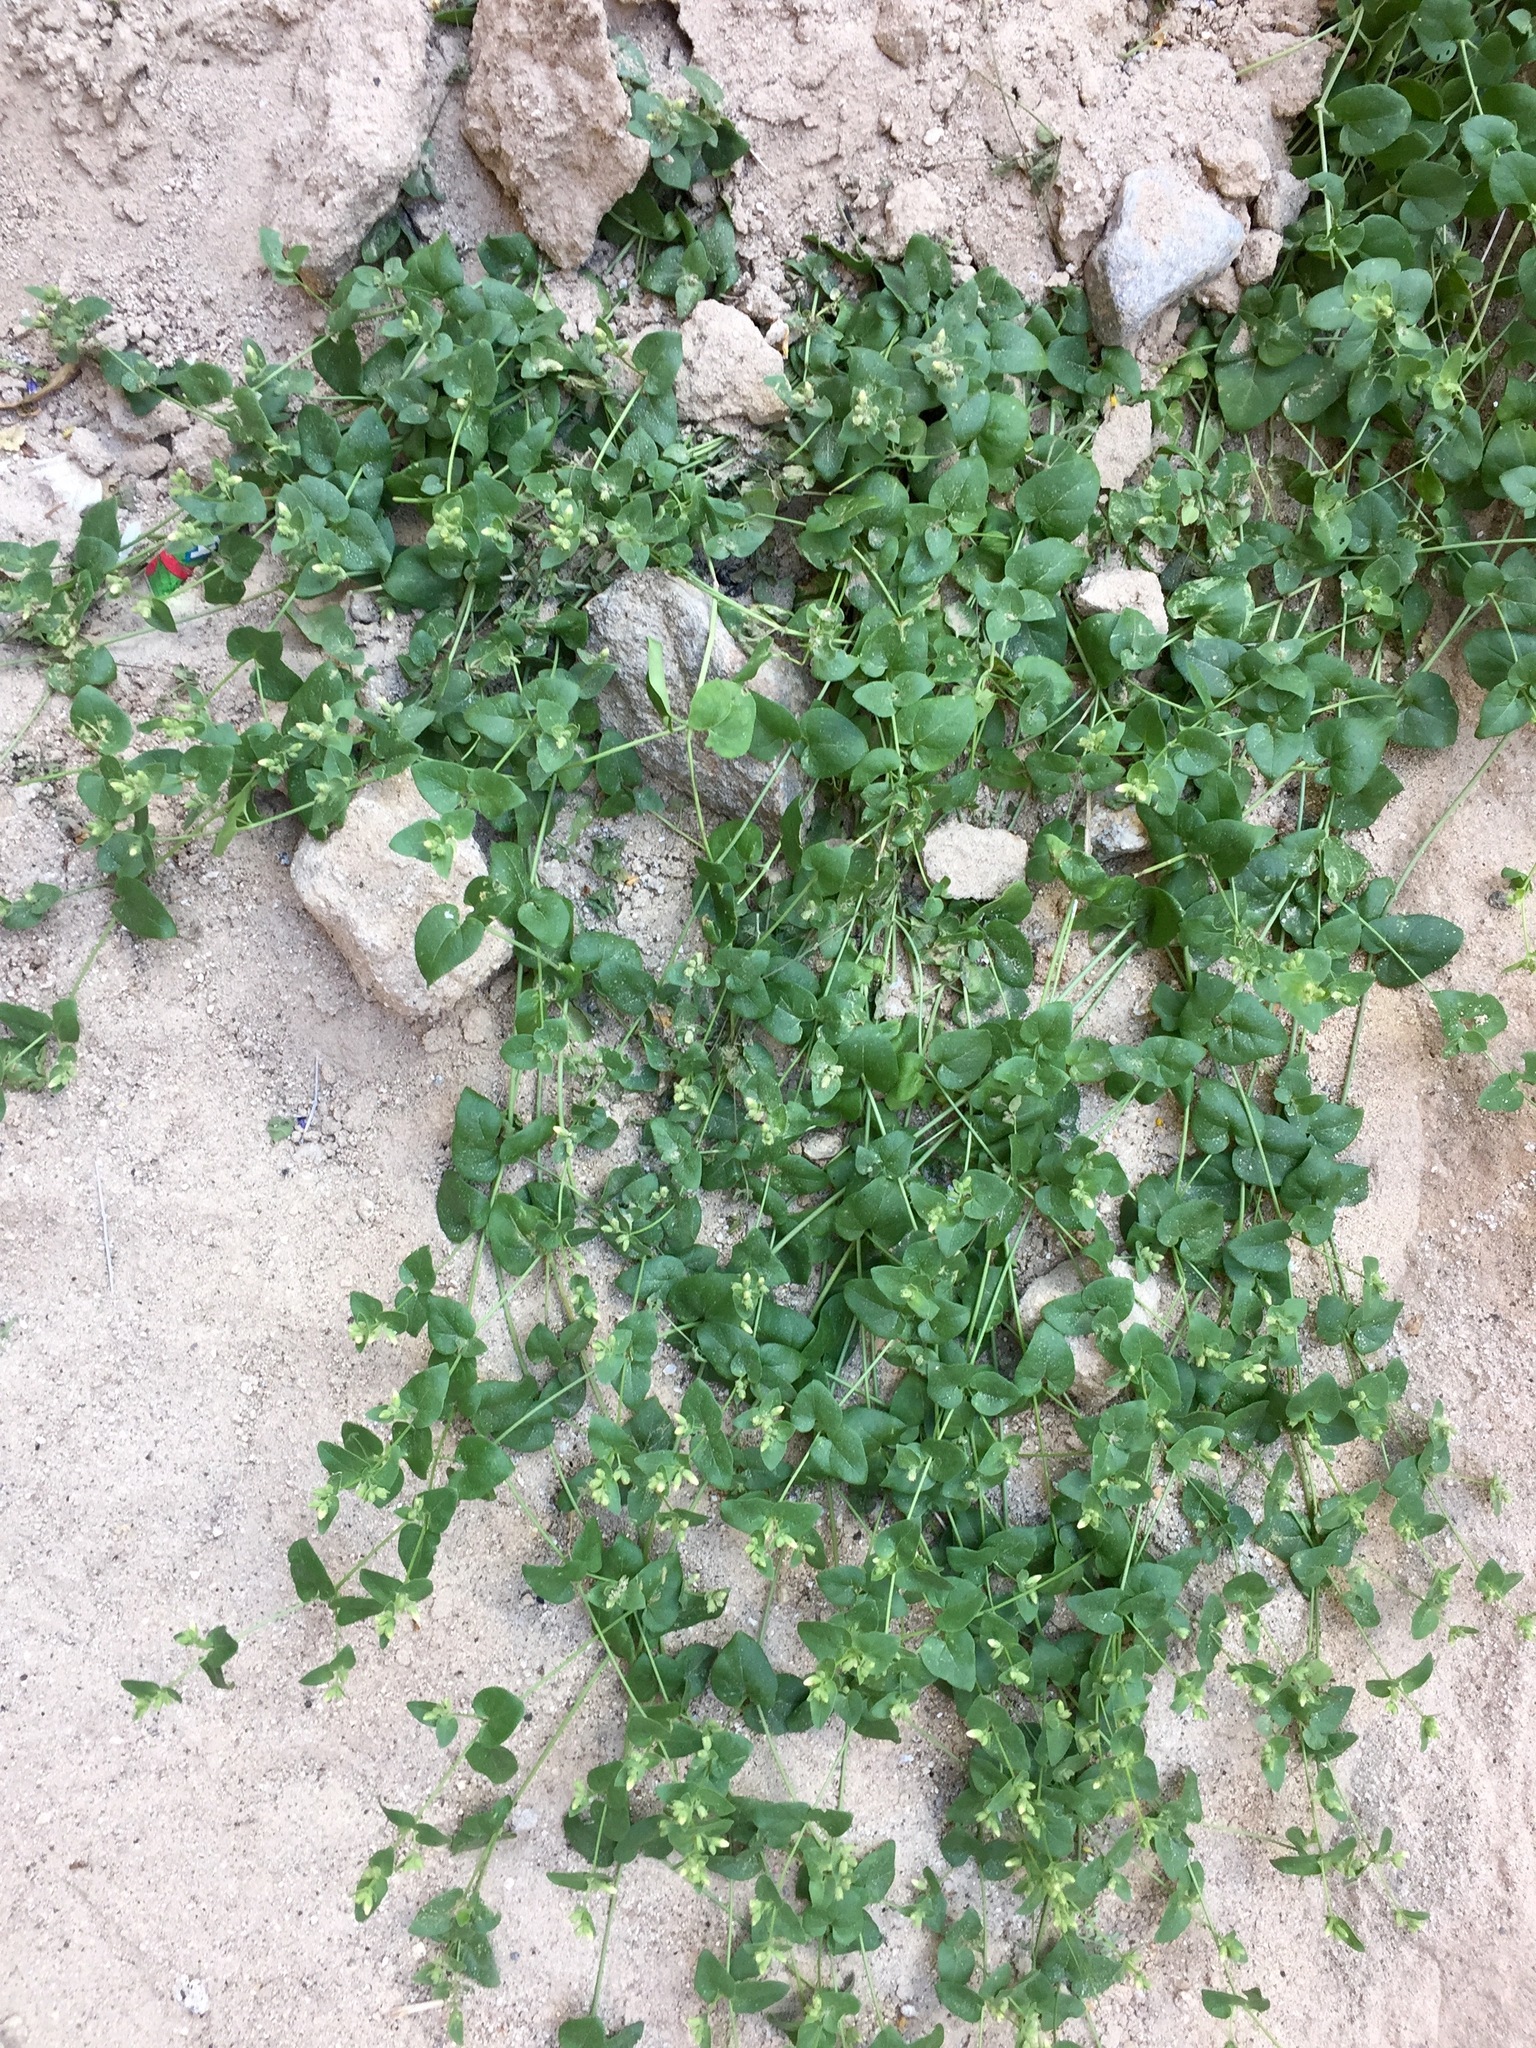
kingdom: Plantae
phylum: Tracheophyta
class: Magnoliopsida
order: Caryophyllales
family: Nyctaginaceae
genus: Mirabilis
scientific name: Mirabilis laevis
